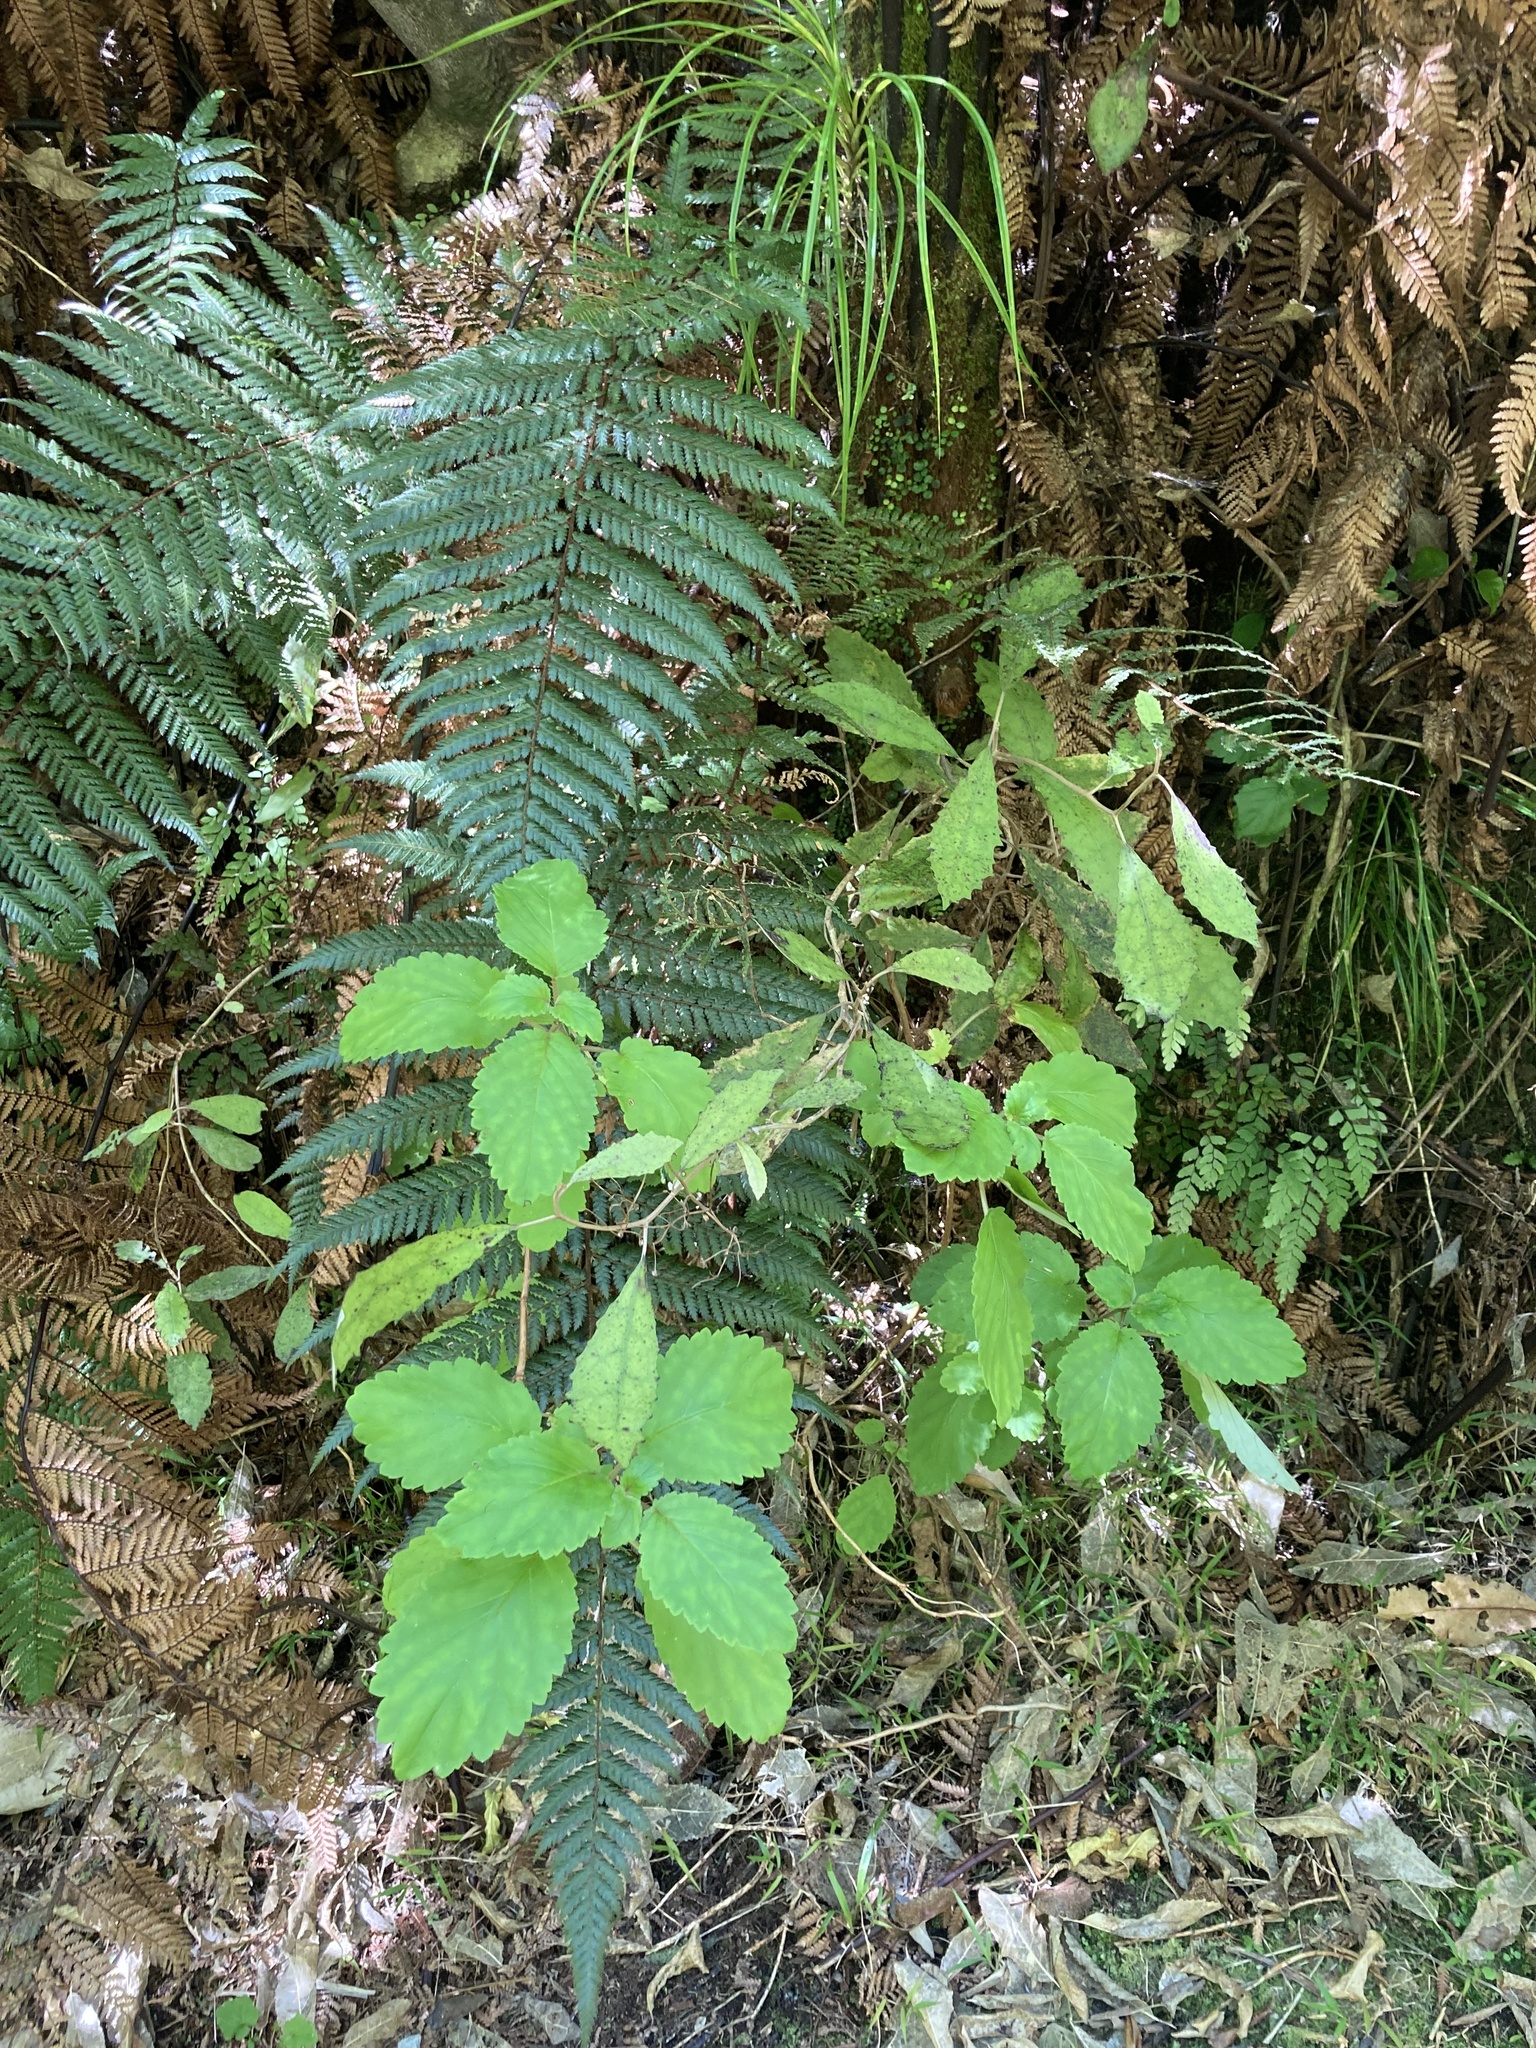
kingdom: Plantae
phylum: Tracheophyta
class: Magnoliopsida
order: Lamiales
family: Calceolariaceae
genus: Jovellana
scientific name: Jovellana sinclairii
